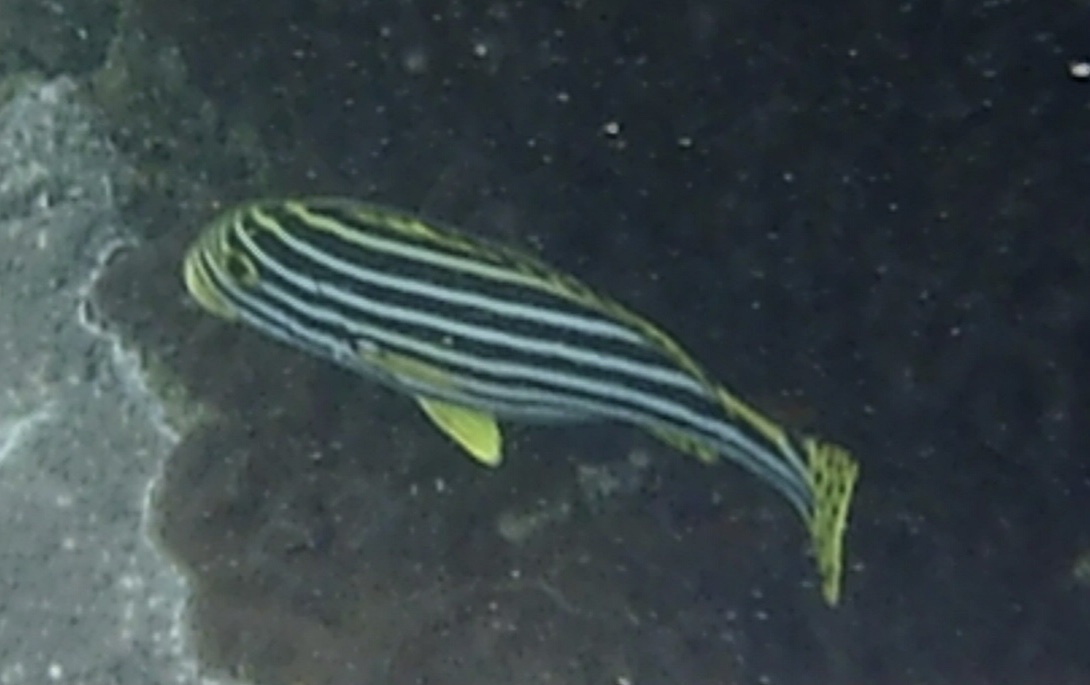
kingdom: Animalia
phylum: Chordata
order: Perciformes
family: Haemulidae
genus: Plectorhinchus
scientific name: Plectorhinchus vittatus
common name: Oriental sweetlips
